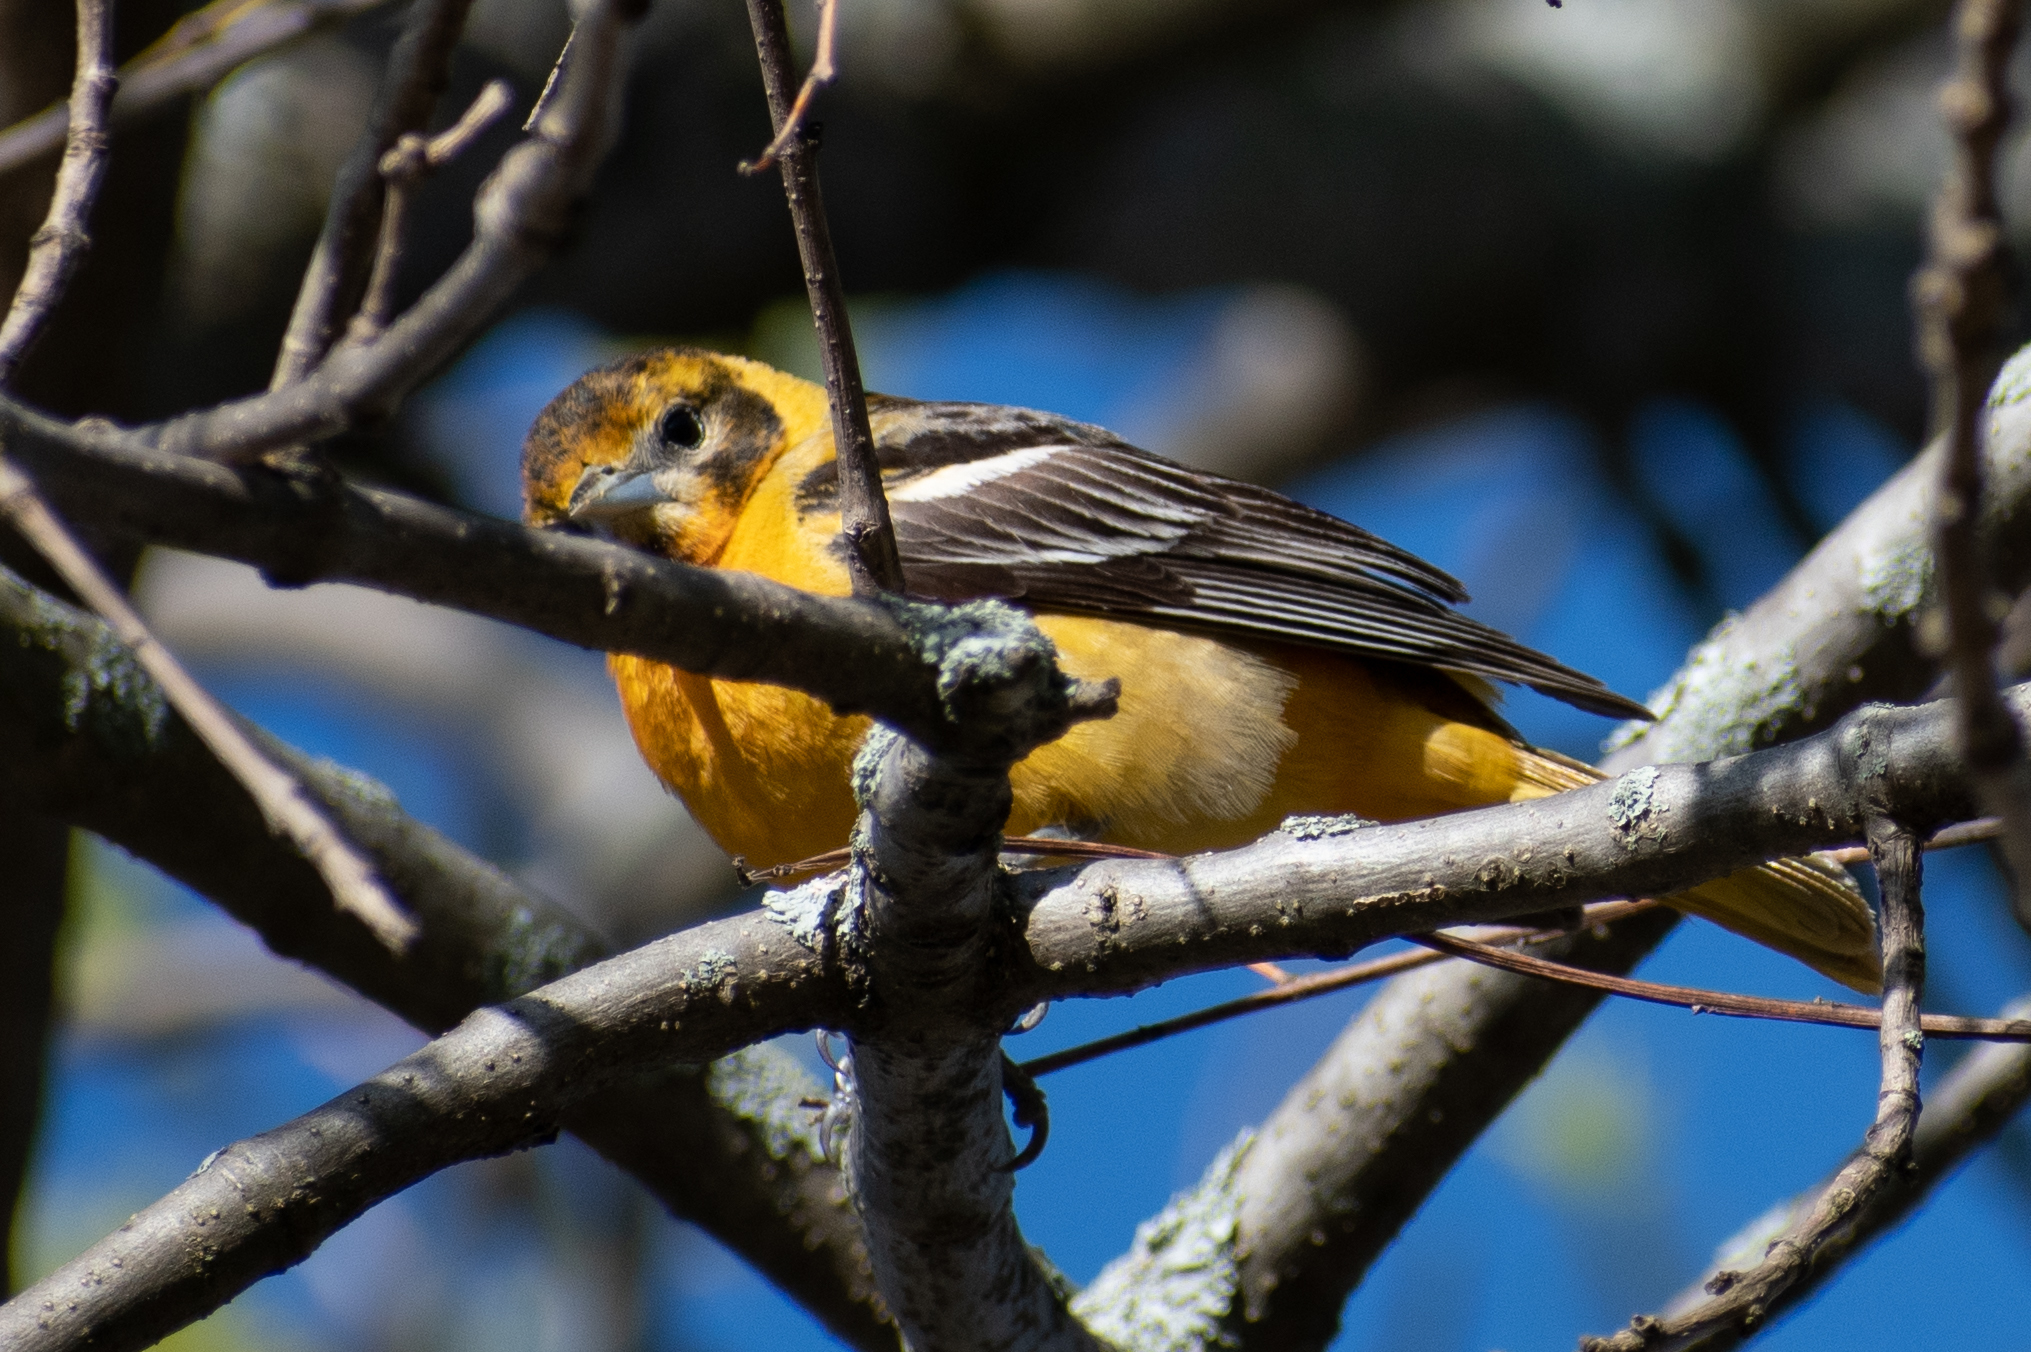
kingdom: Animalia
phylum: Chordata
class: Aves
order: Passeriformes
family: Icteridae
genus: Icterus
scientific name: Icterus galbula
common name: Baltimore oriole
